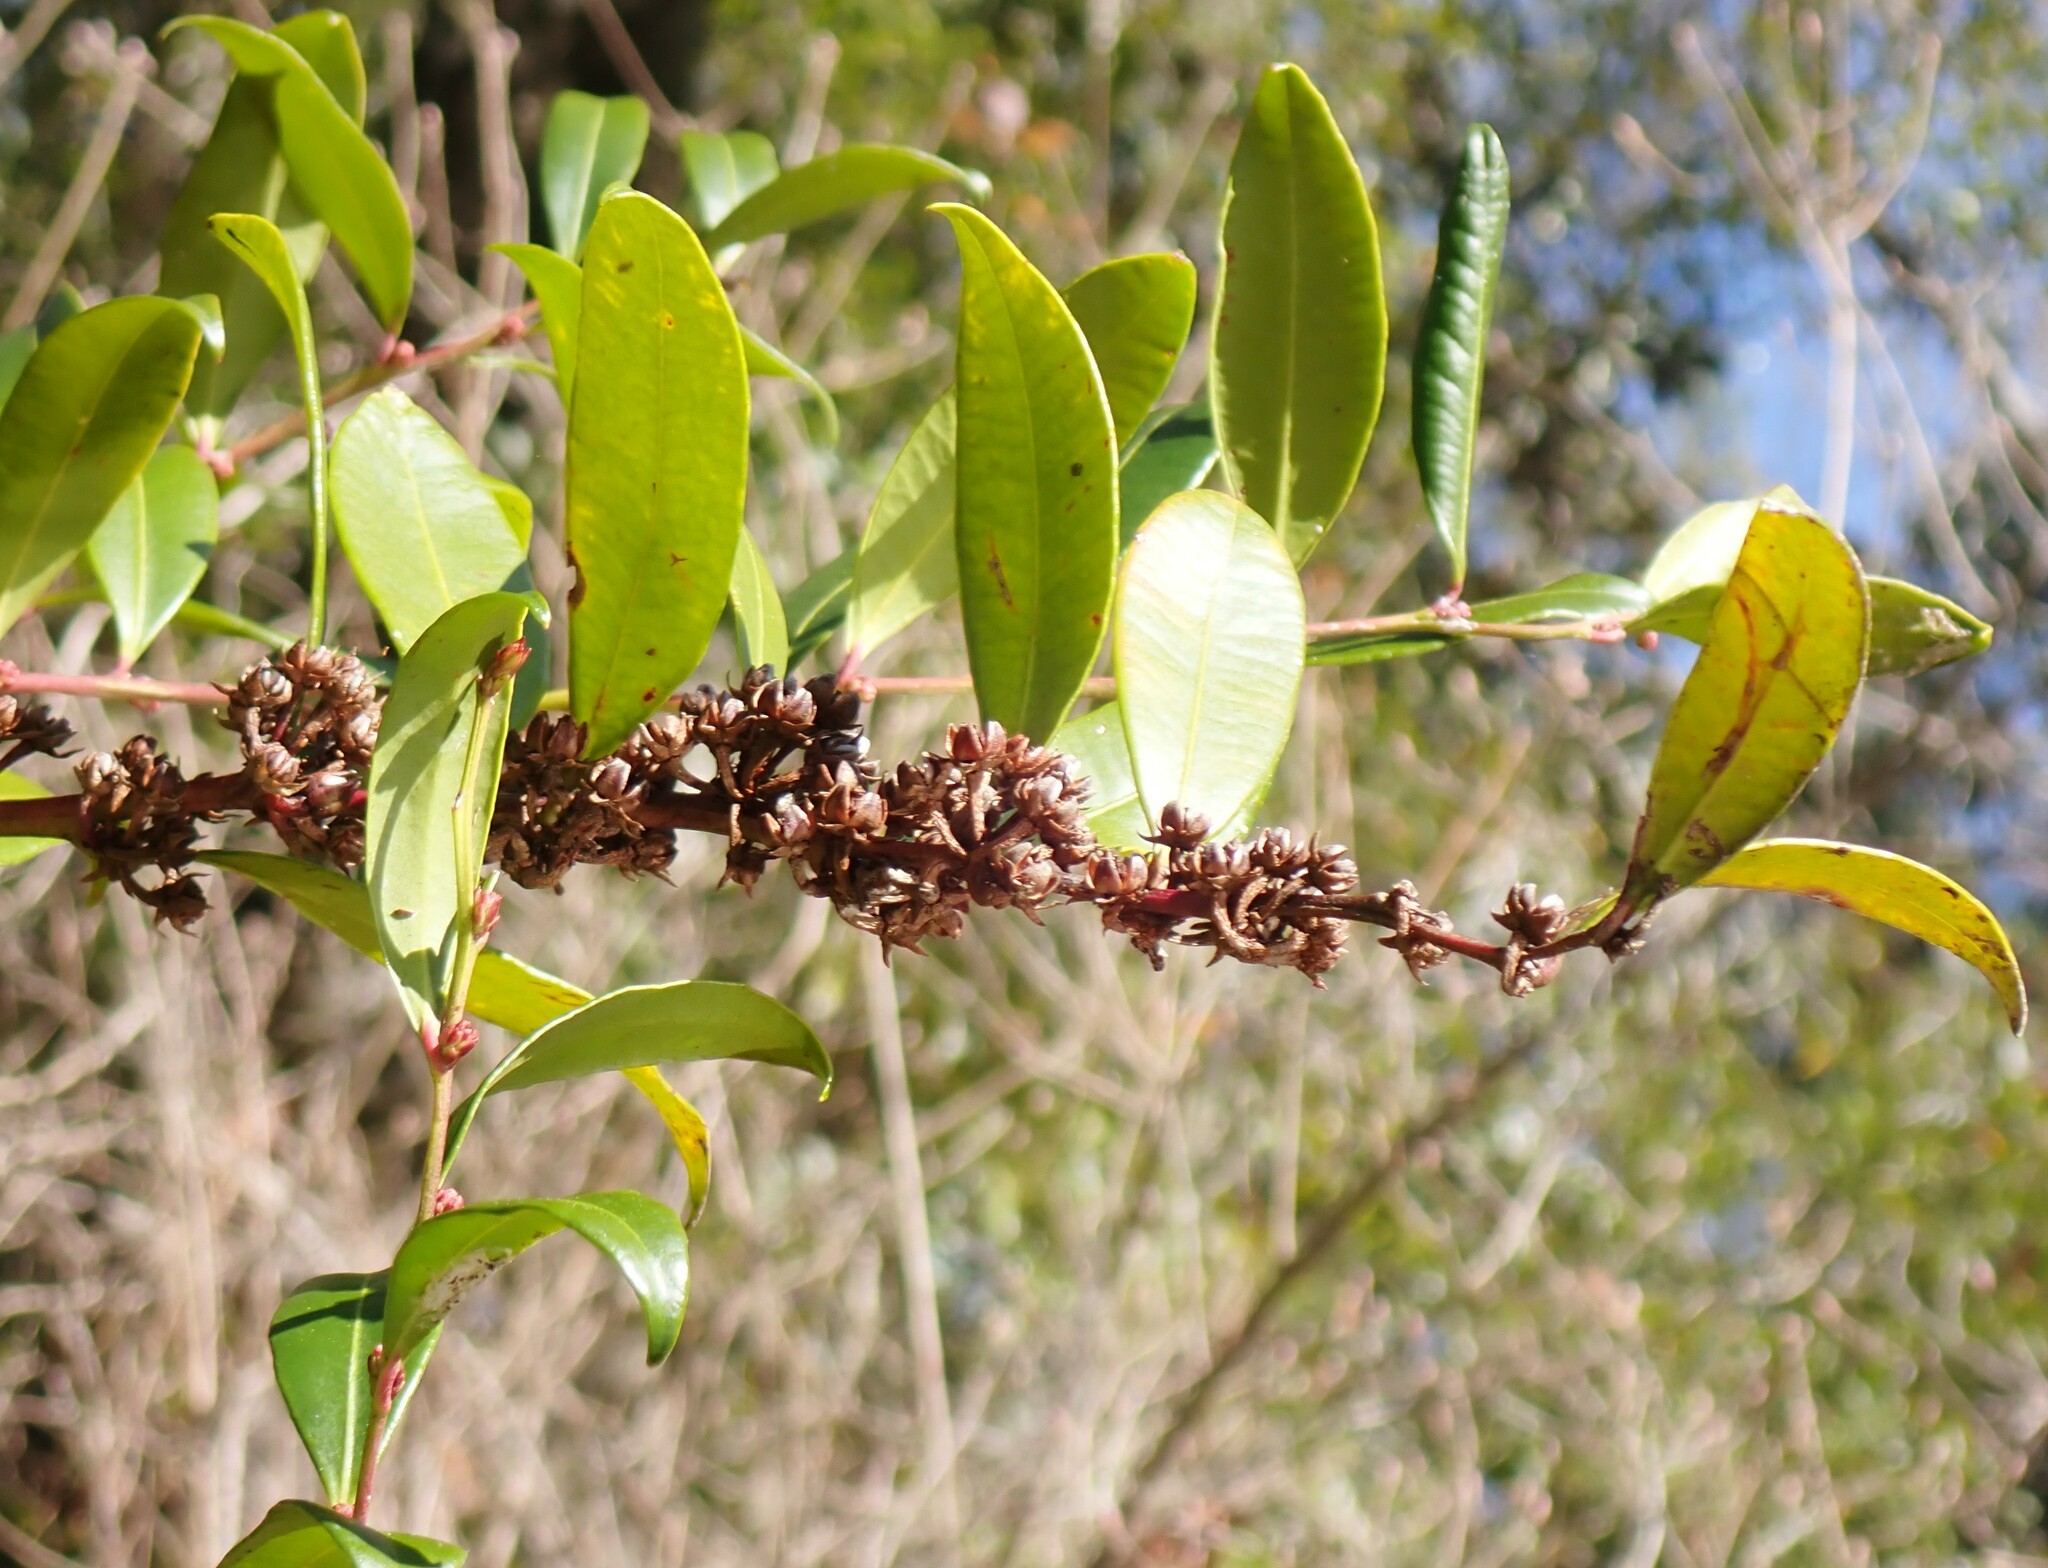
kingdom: Plantae
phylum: Tracheophyta
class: Magnoliopsida
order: Ericales
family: Ericaceae
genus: Lyonia
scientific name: Lyonia lucida
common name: Fetterbush
